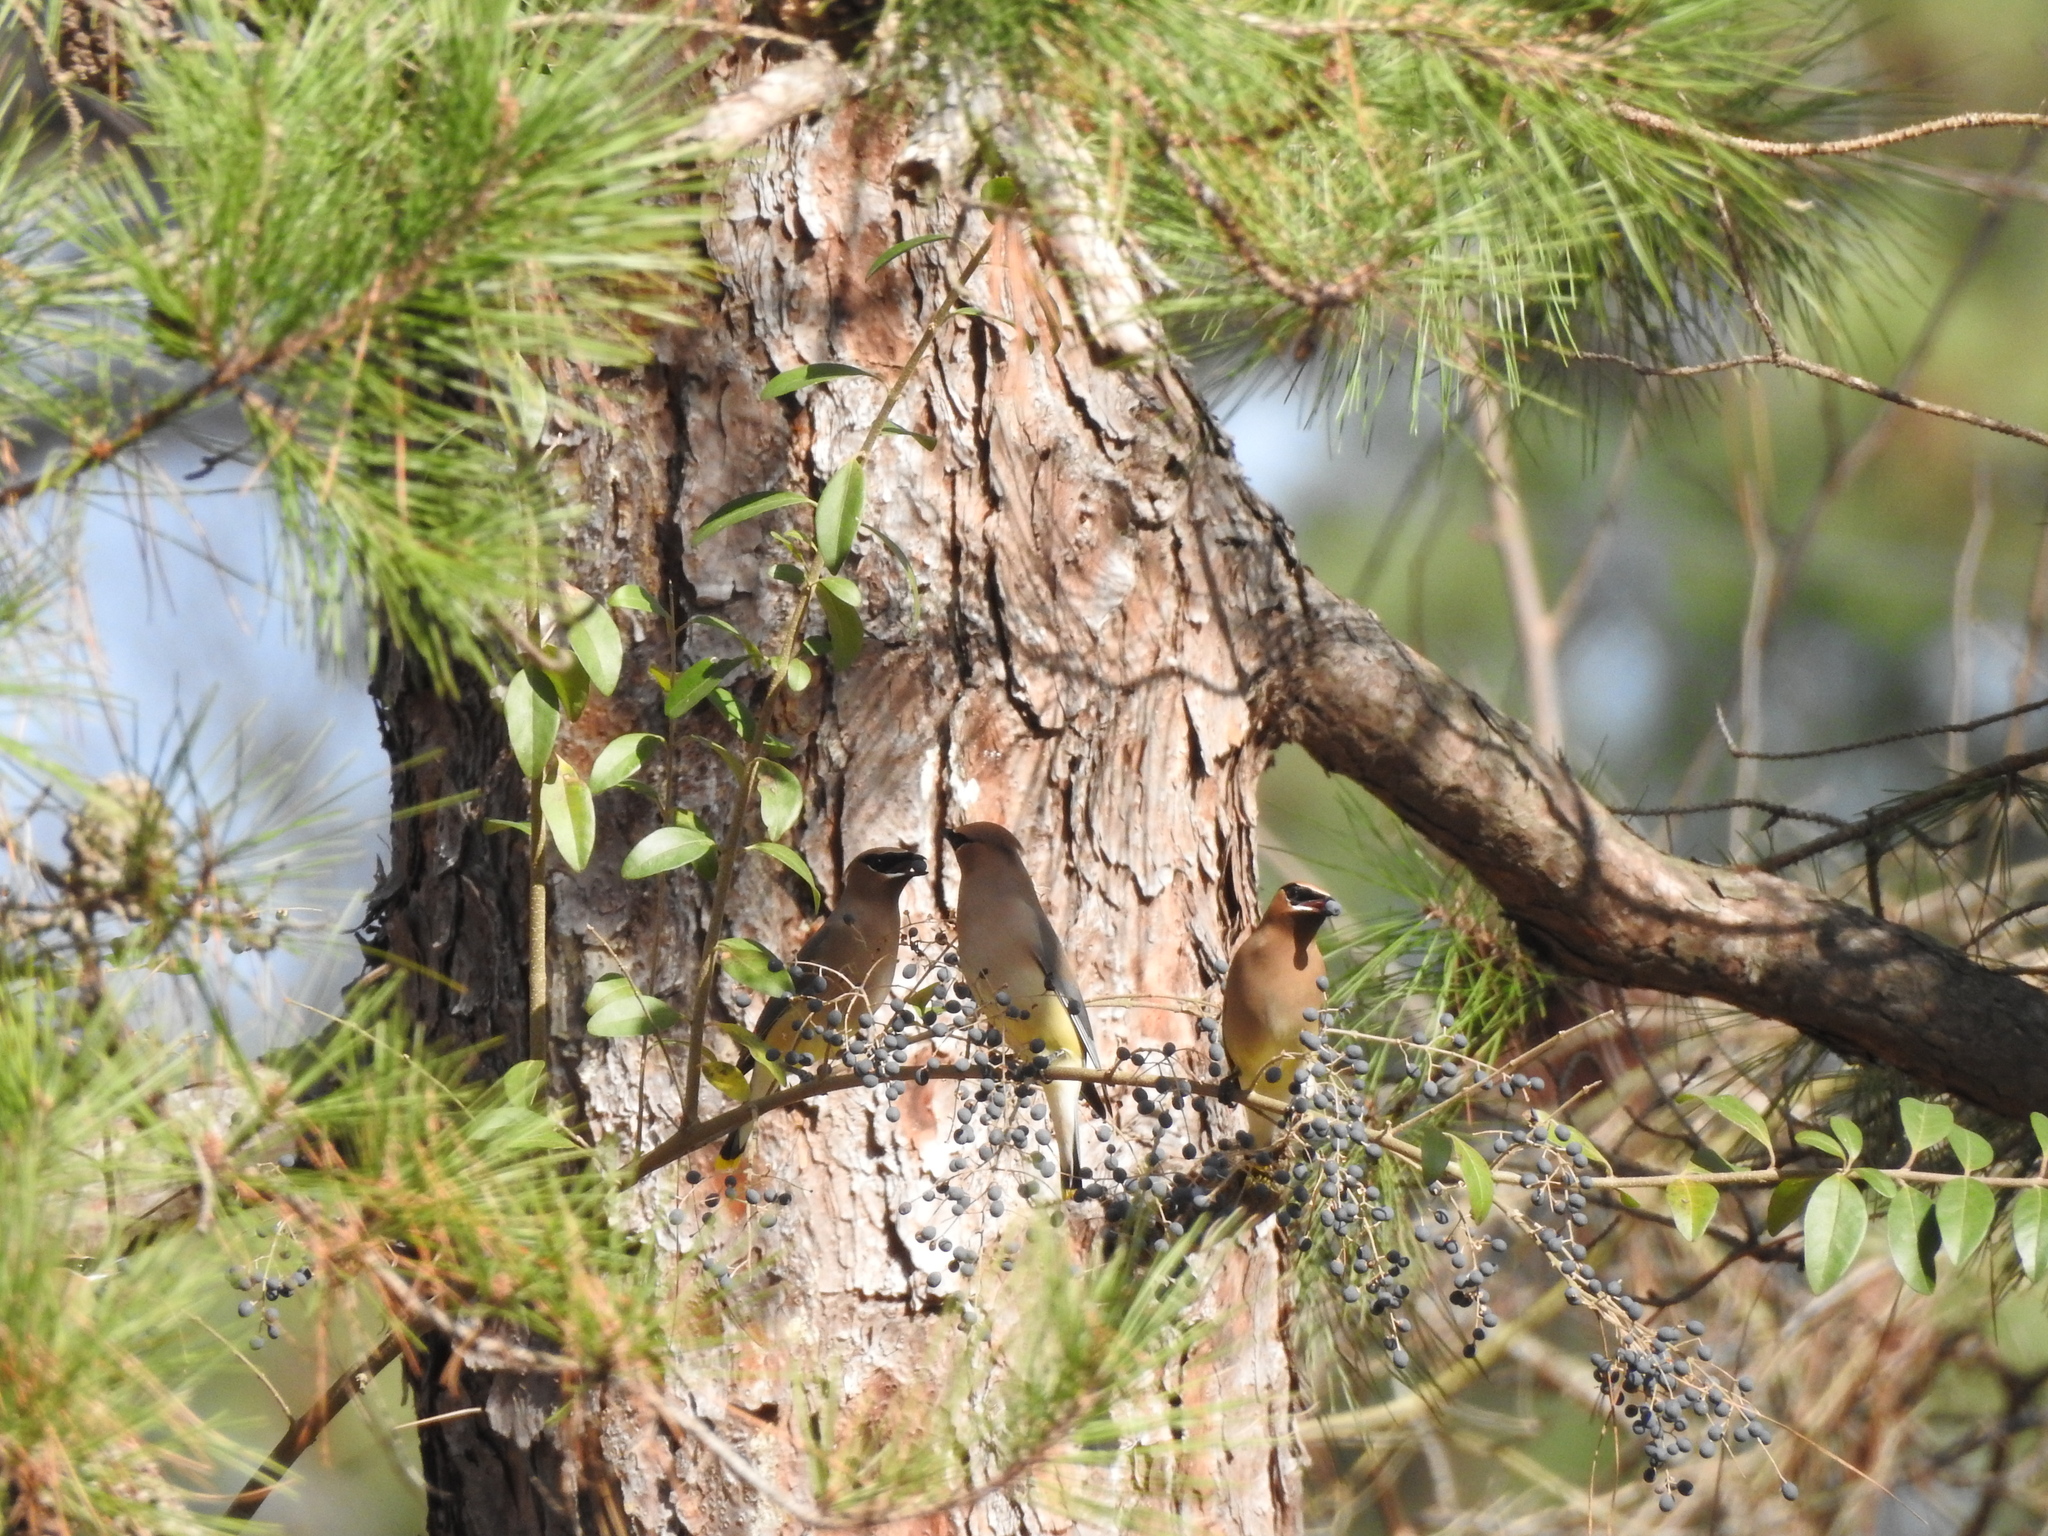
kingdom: Animalia
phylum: Chordata
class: Aves
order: Passeriformes
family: Bombycillidae
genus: Bombycilla
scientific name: Bombycilla cedrorum
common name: Cedar waxwing
